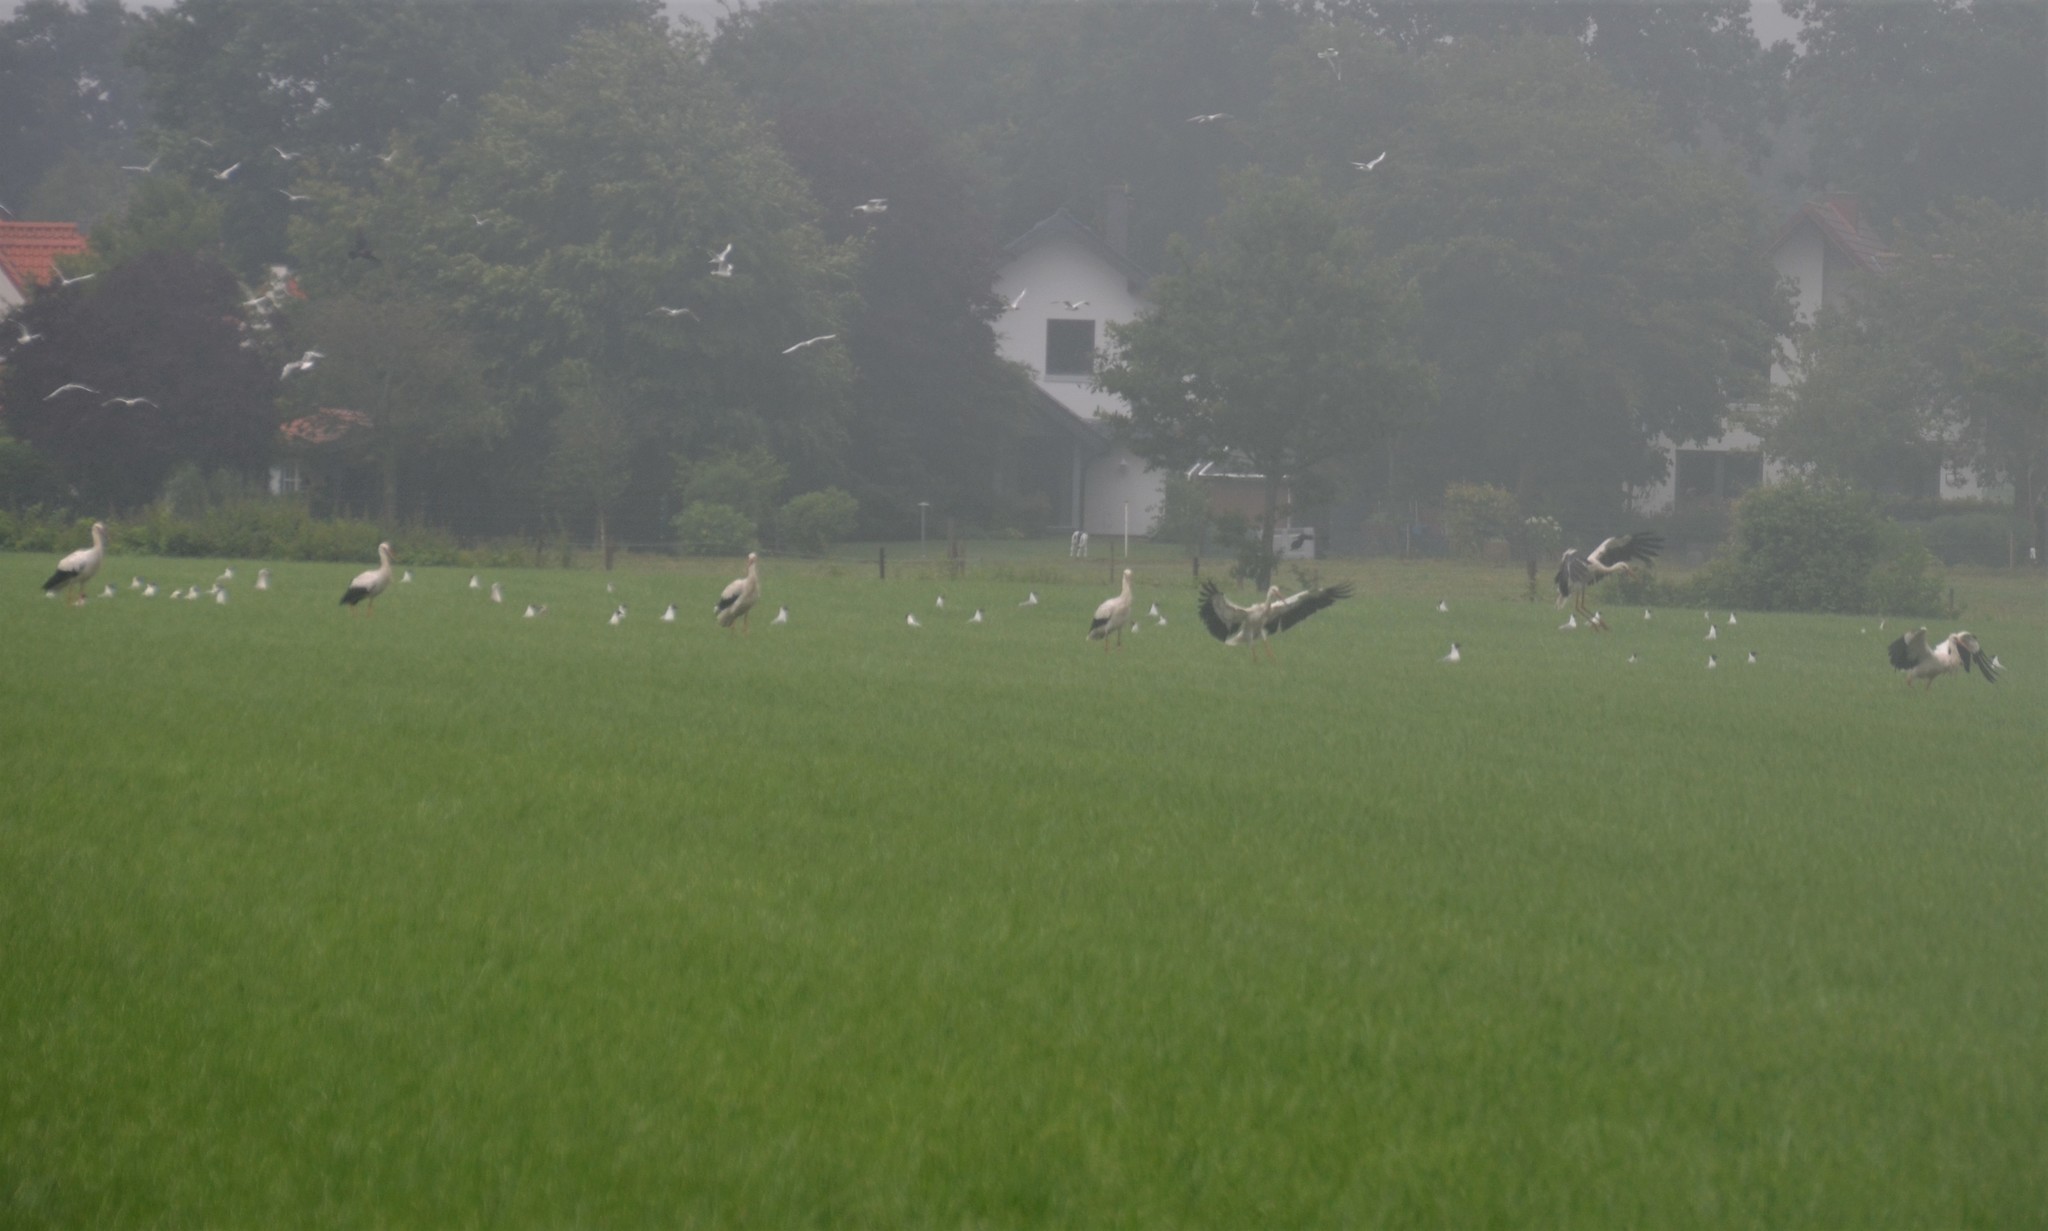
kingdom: Animalia
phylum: Chordata
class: Aves
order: Ciconiiformes
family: Ciconiidae
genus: Ciconia
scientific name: Ciconia ciconia
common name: White stork
